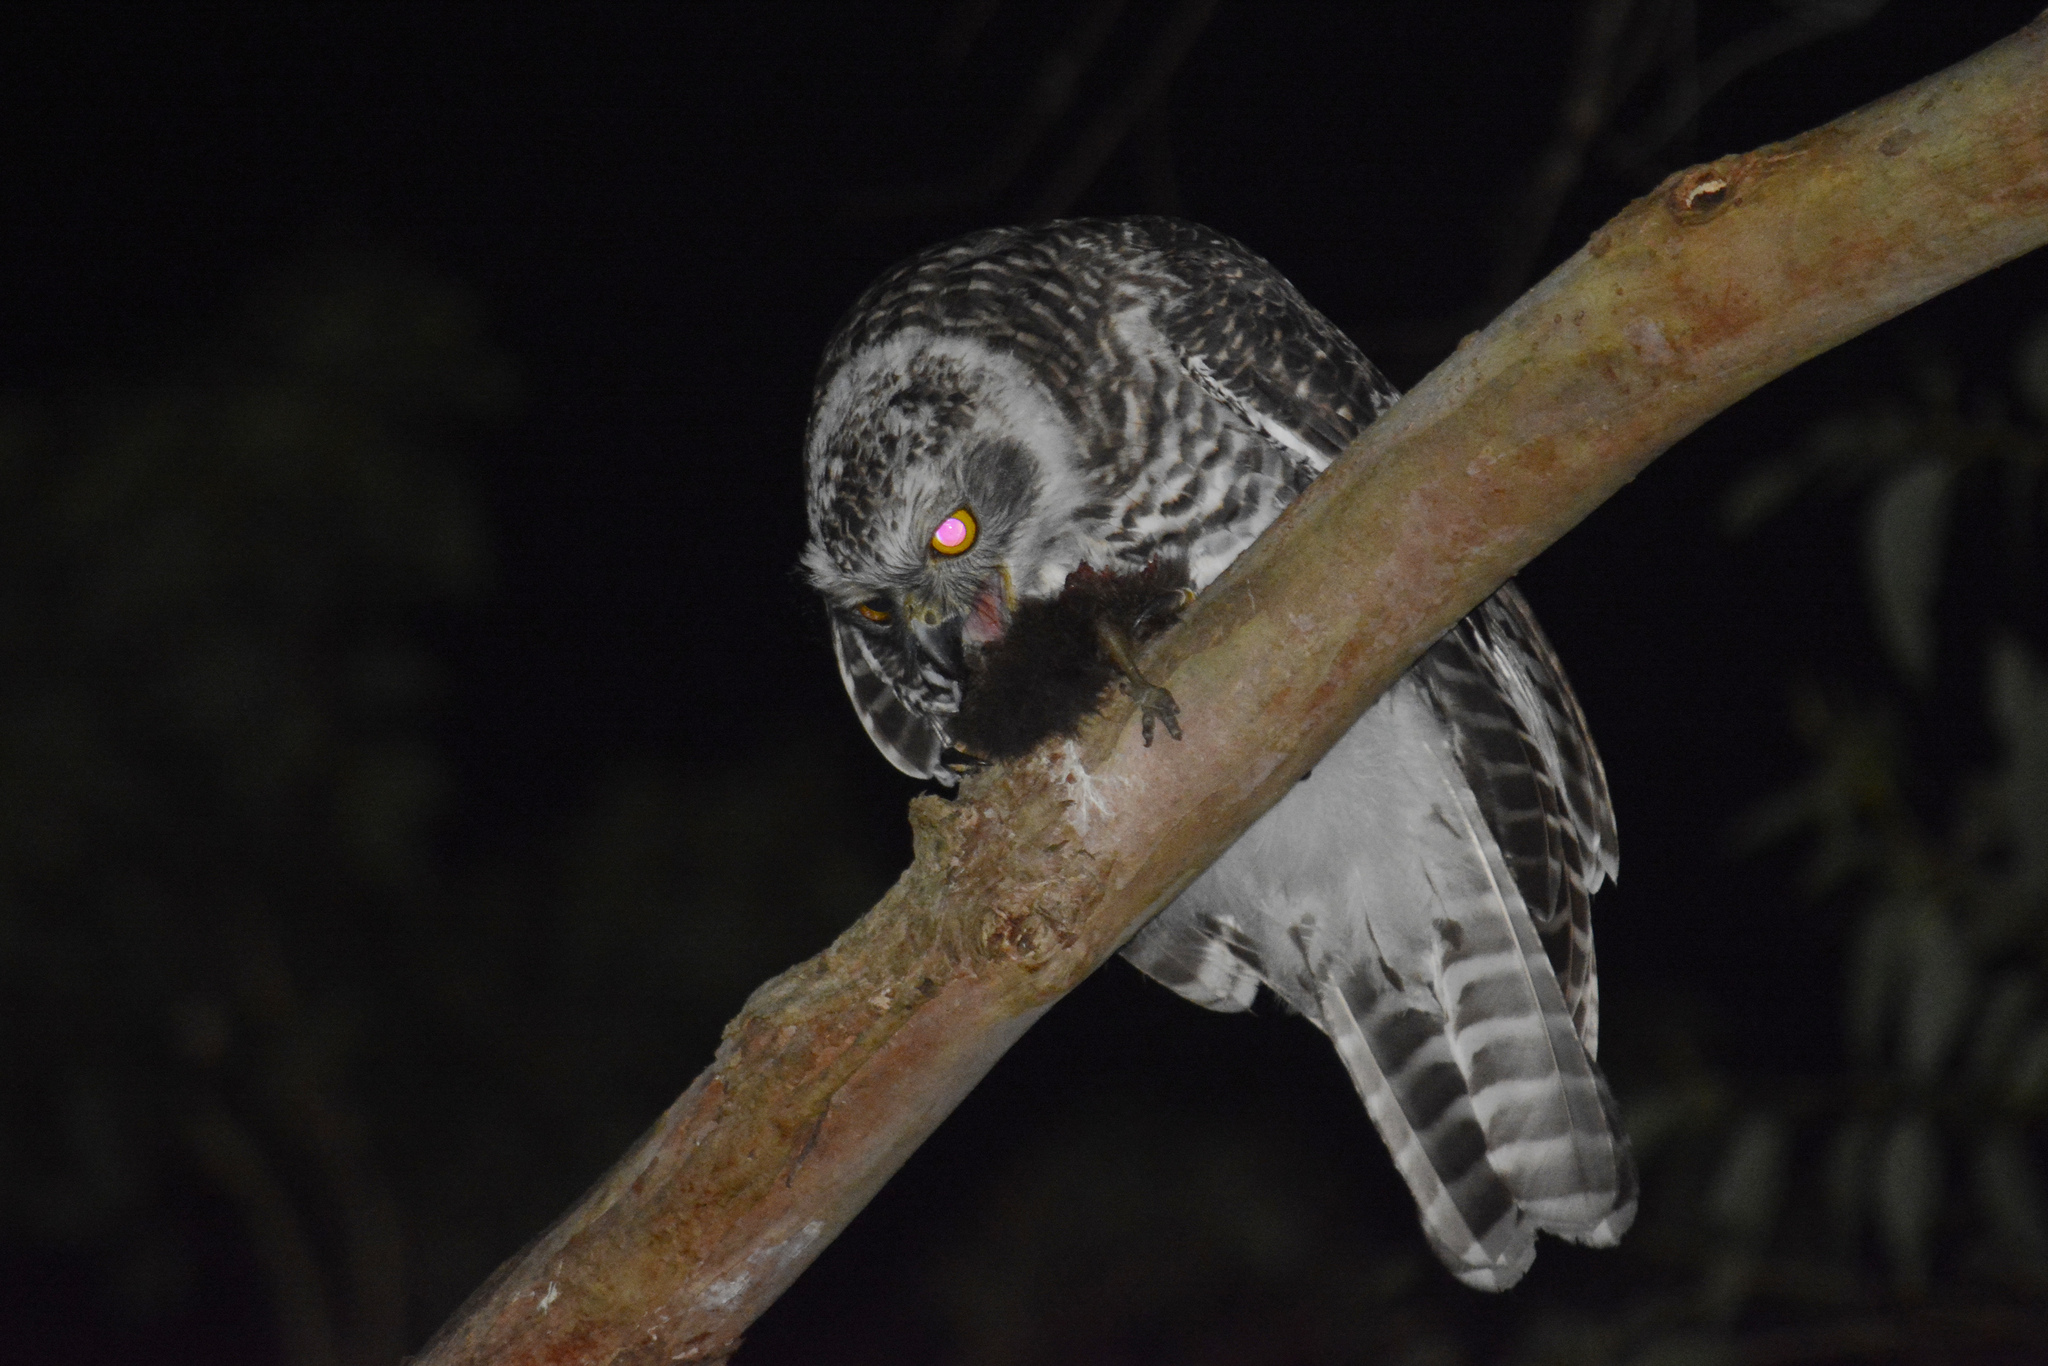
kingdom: Animalia
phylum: Chordata
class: Aves
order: Galliformes
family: Megapodiidae
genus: Alectura
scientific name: Alectura lathami
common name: Australian brushturkey
